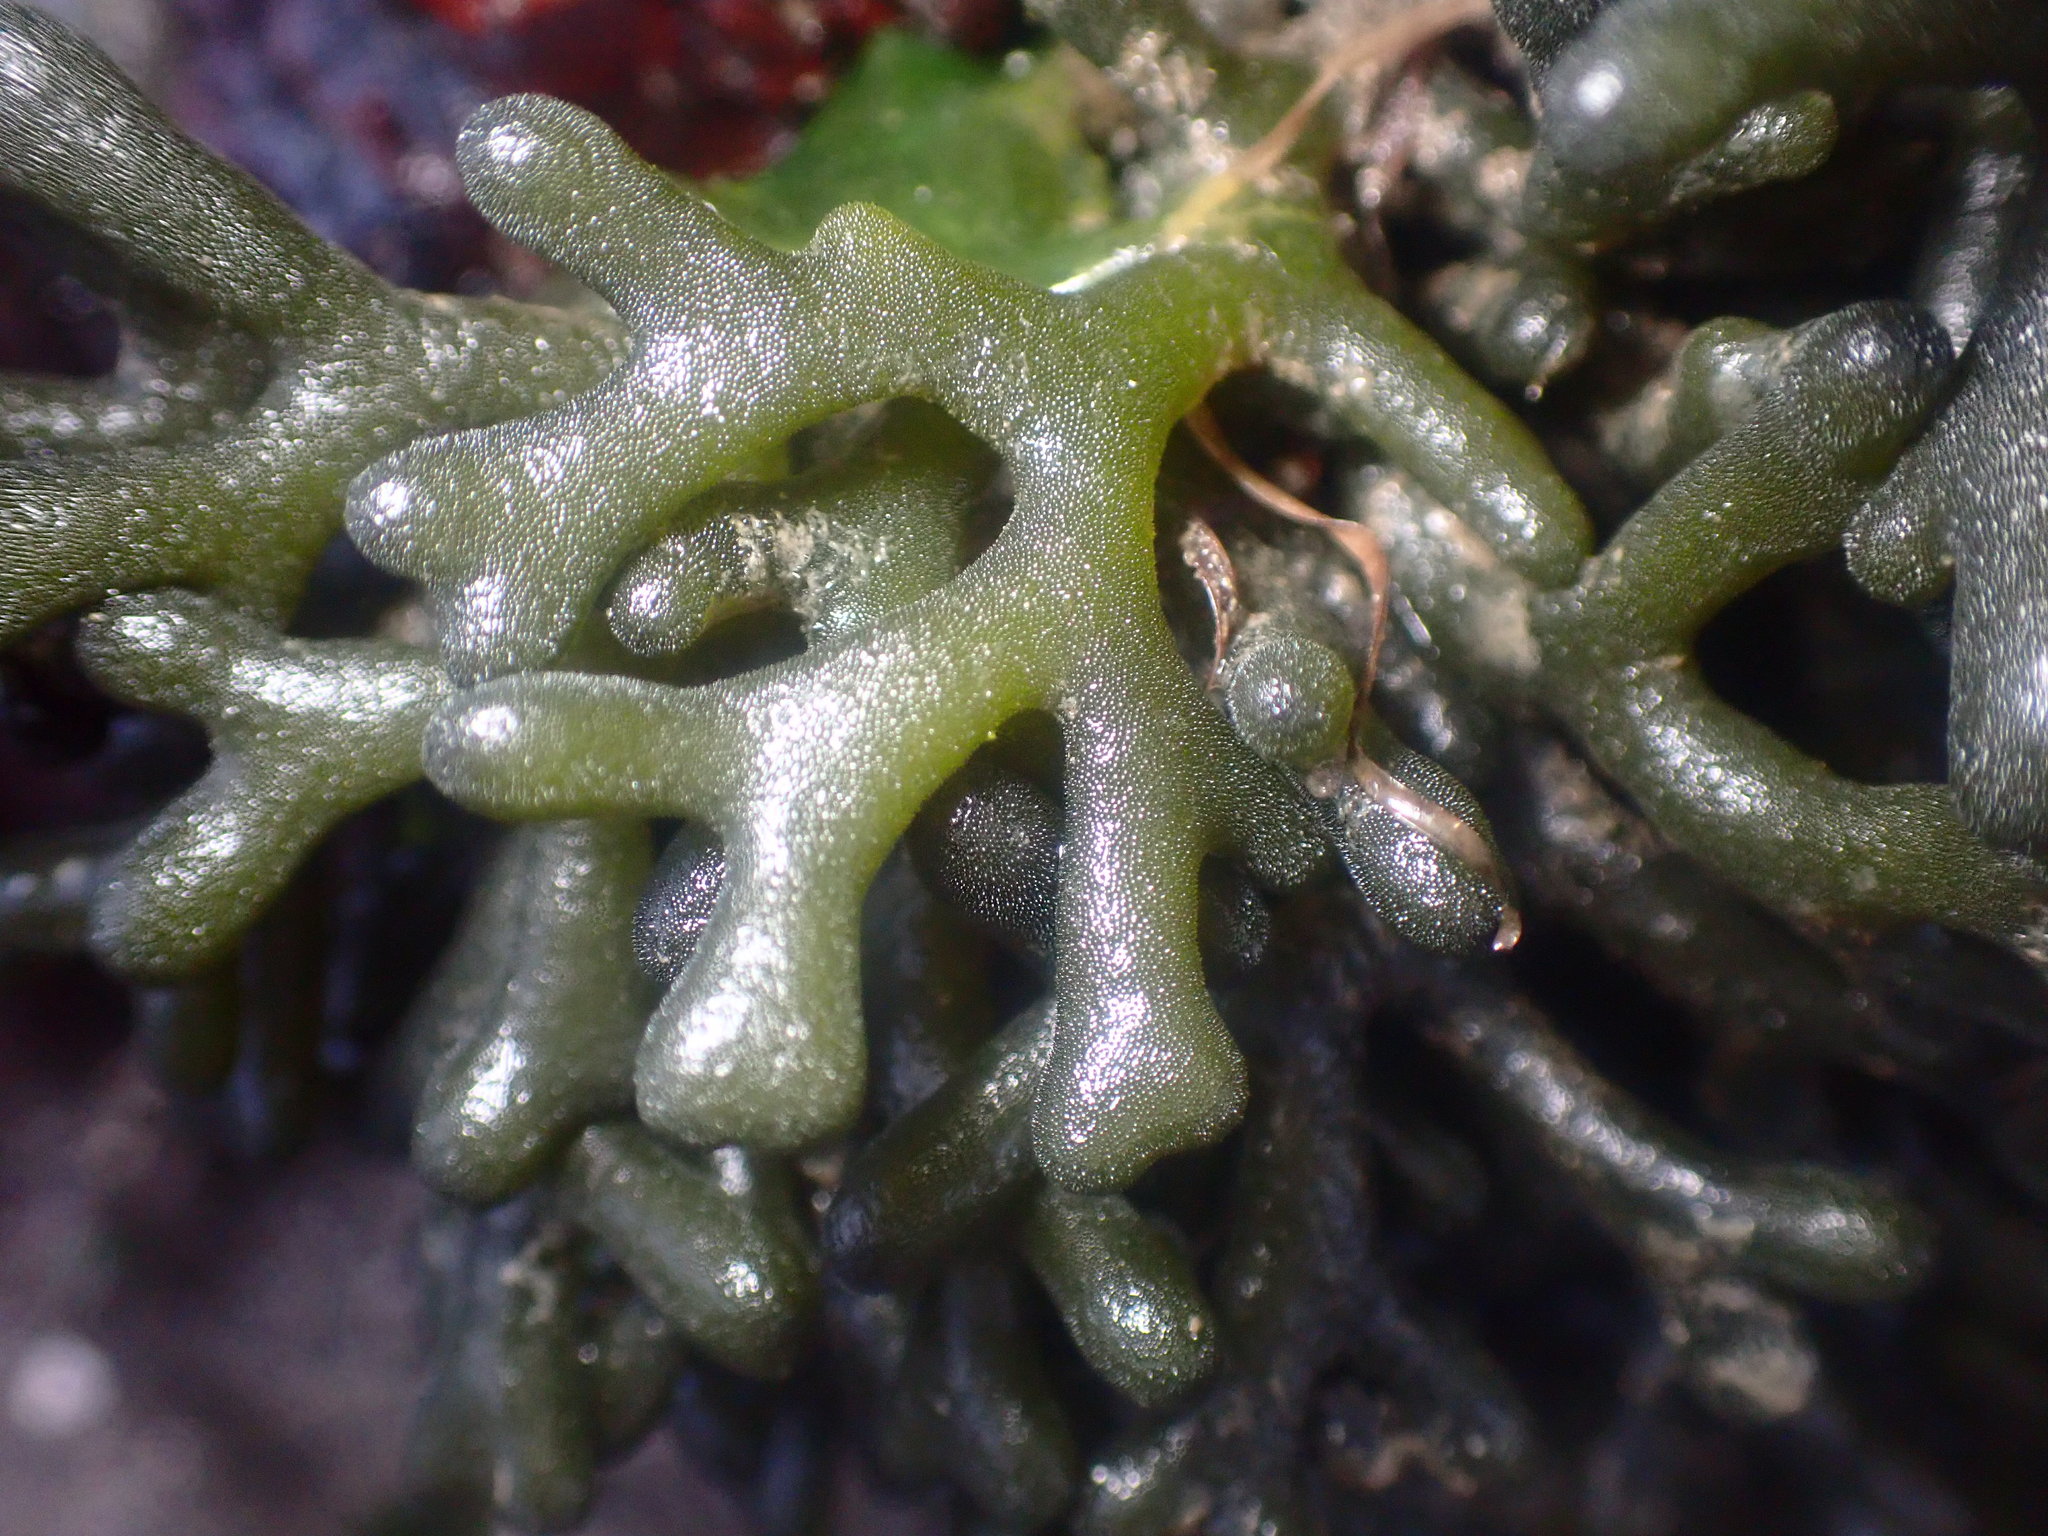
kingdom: Plantae
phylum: Chlorophyta
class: Ulvophyceae
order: Bryopsidales
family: Codiaceae
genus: Codium
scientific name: Codium fragile
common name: Dead man's fingers
